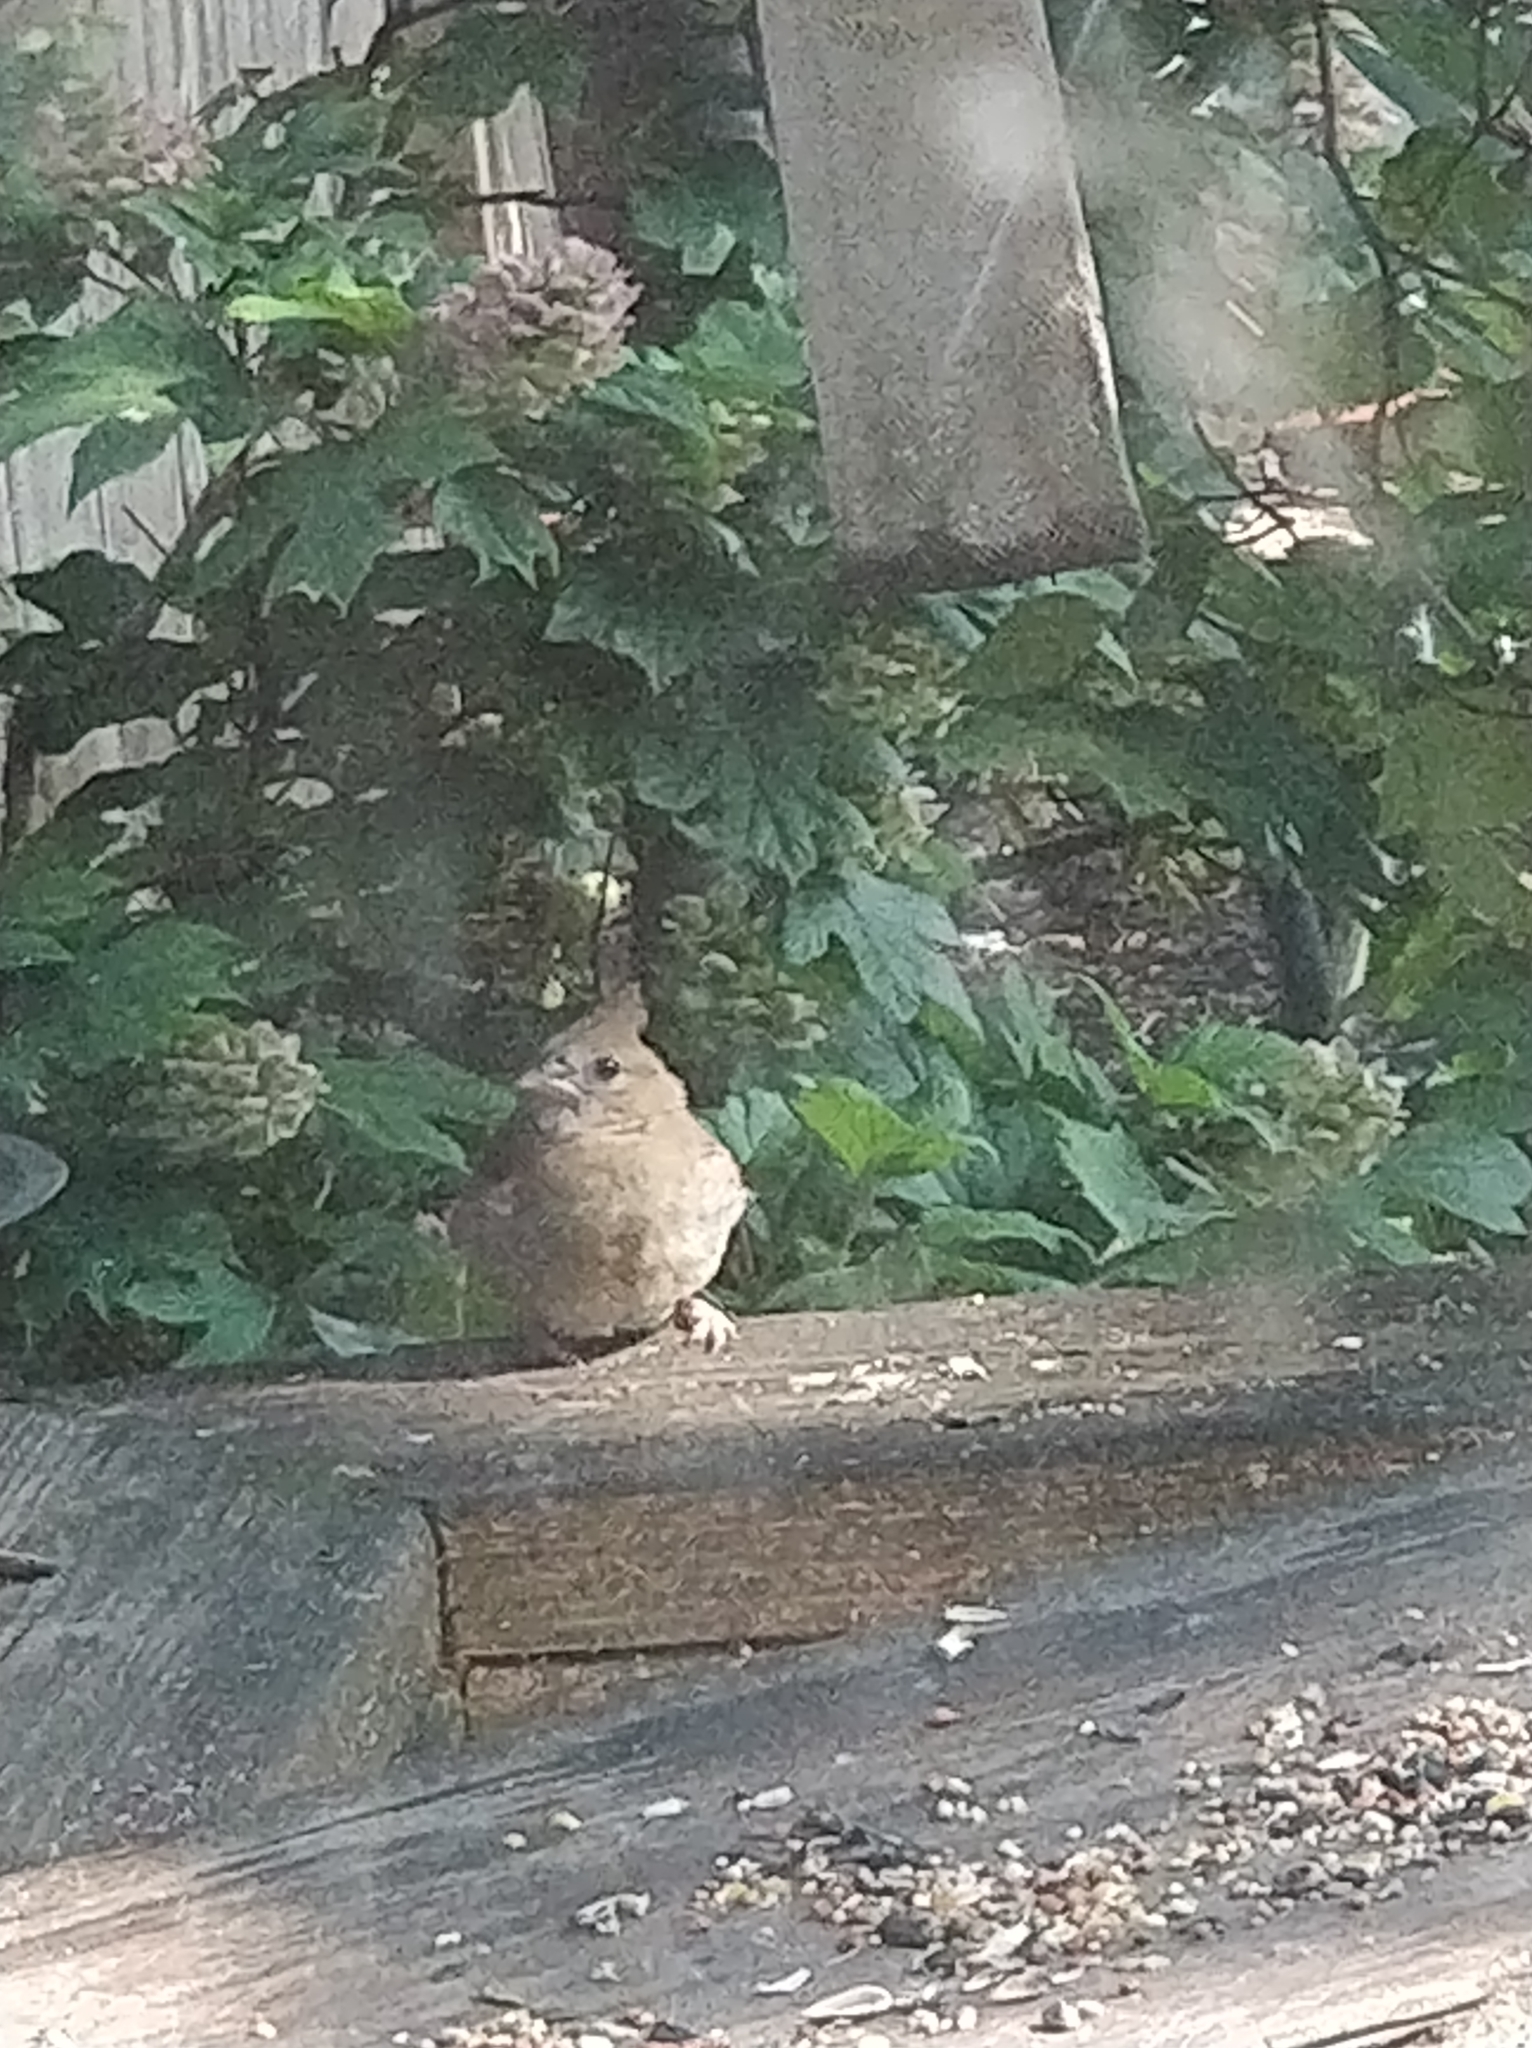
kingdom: Animalia
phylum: Chordata
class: Aves
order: Passeriformes
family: Cardinalidae
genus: Cardinalis
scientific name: Cardinalis cardinalis
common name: Northern cardinal
